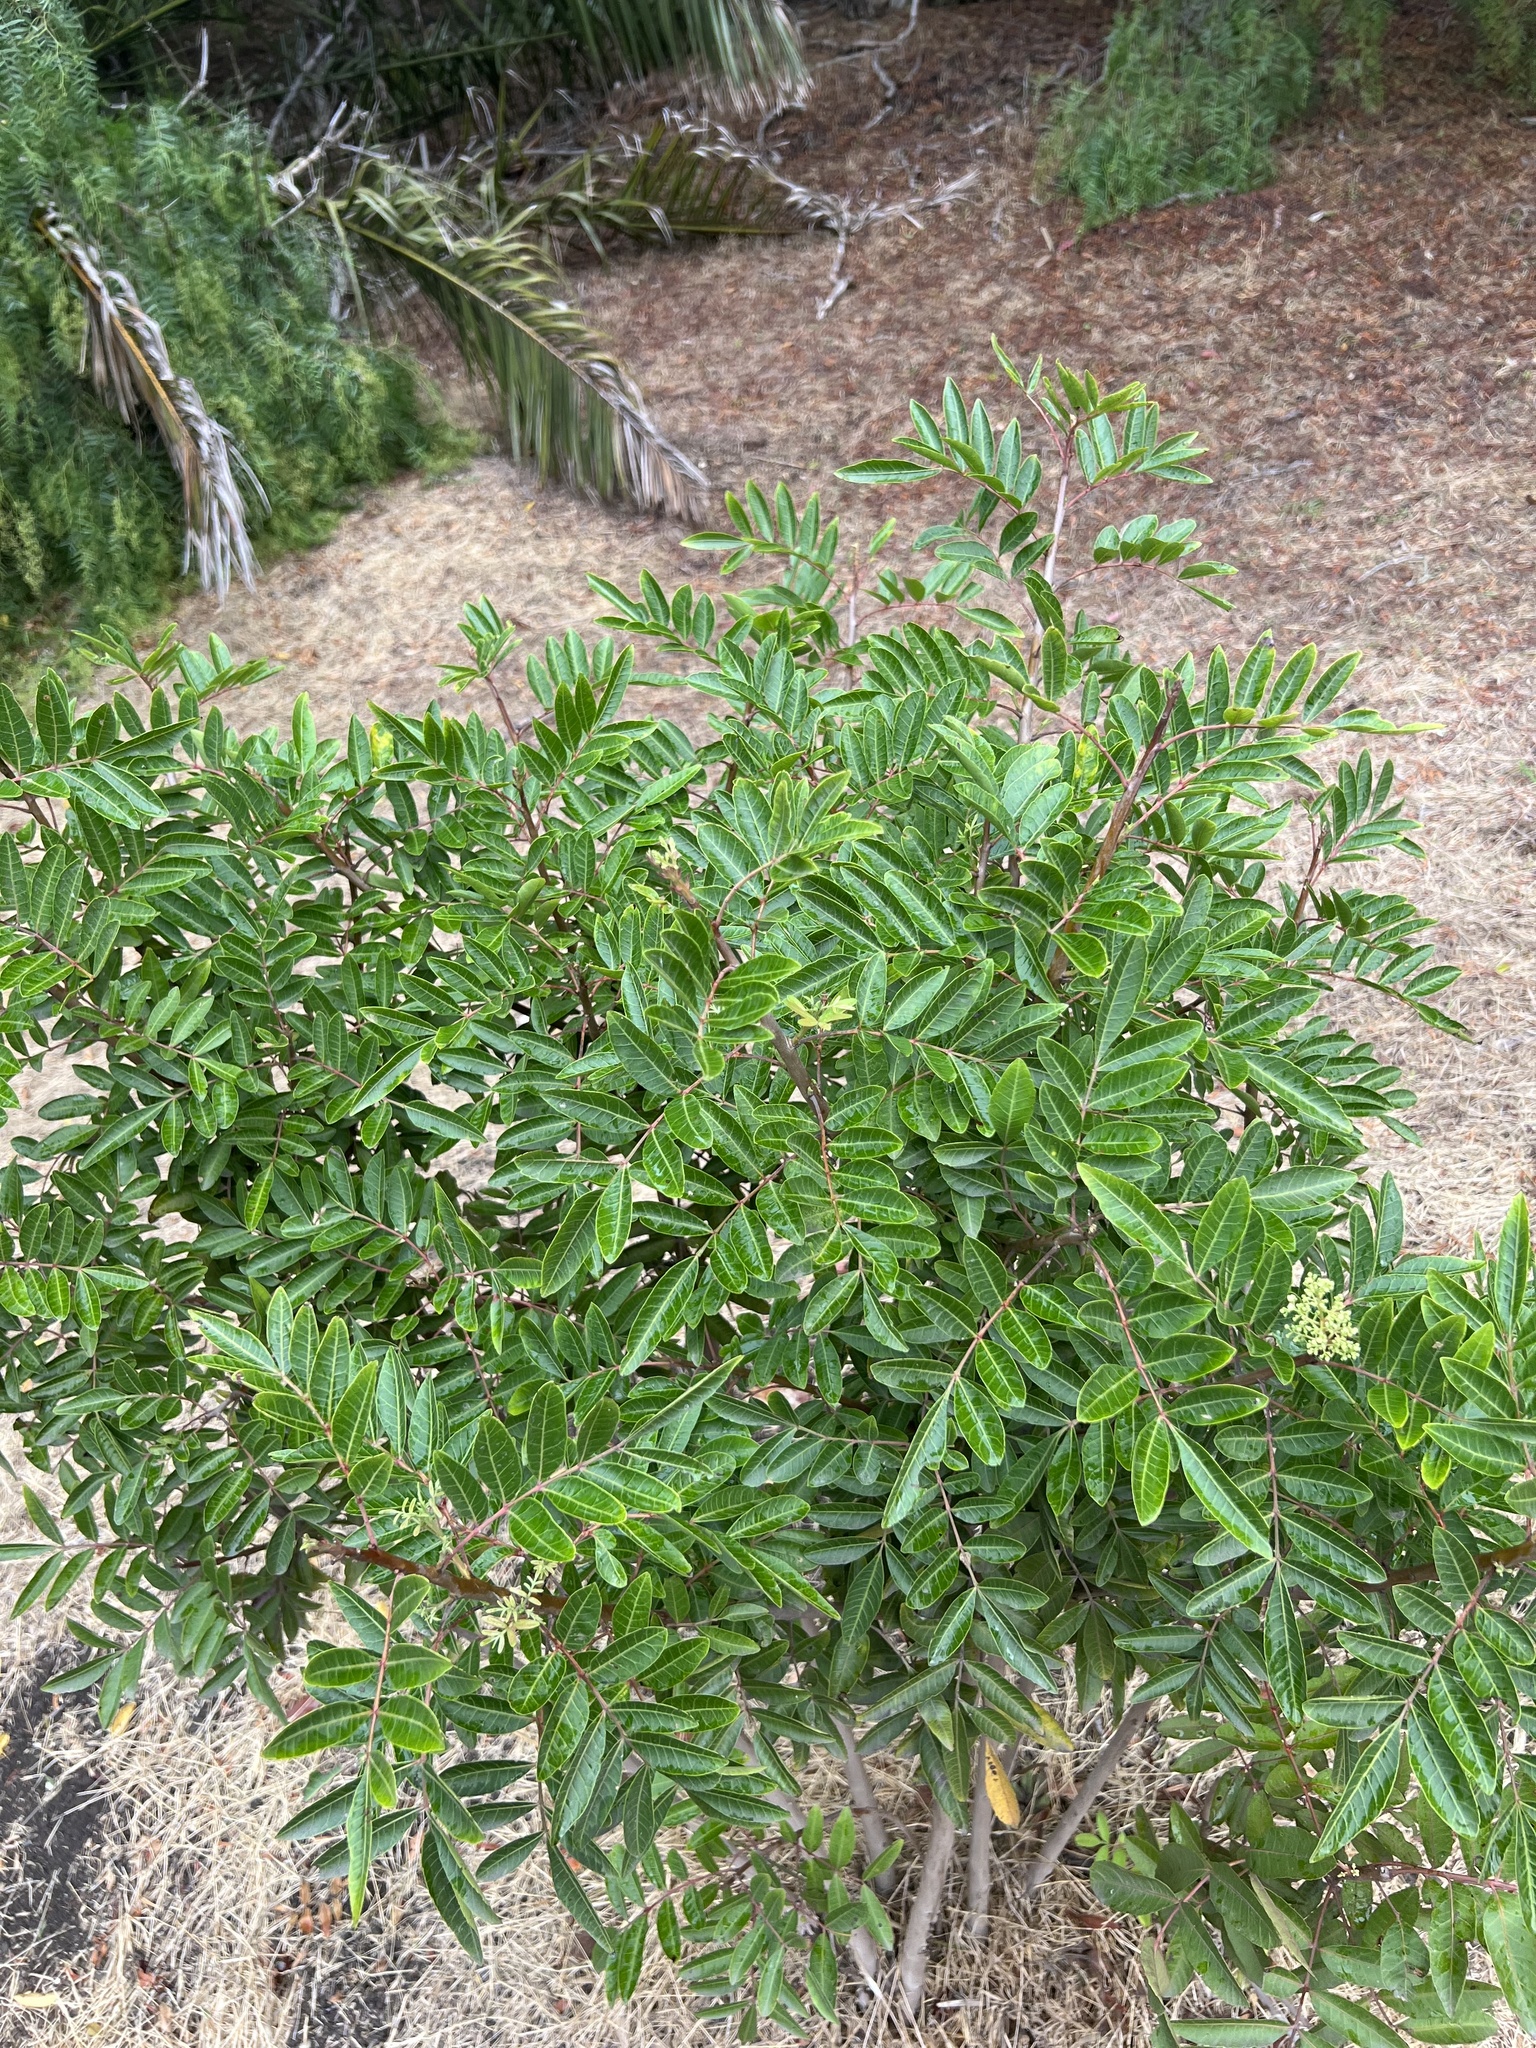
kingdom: Plantae
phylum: Tracheophyta
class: Magnoliopsida
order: Sapindales
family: Anacardiaceae
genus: Schinus
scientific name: Schinus terebinthifolia
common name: Brazilian peppertree
